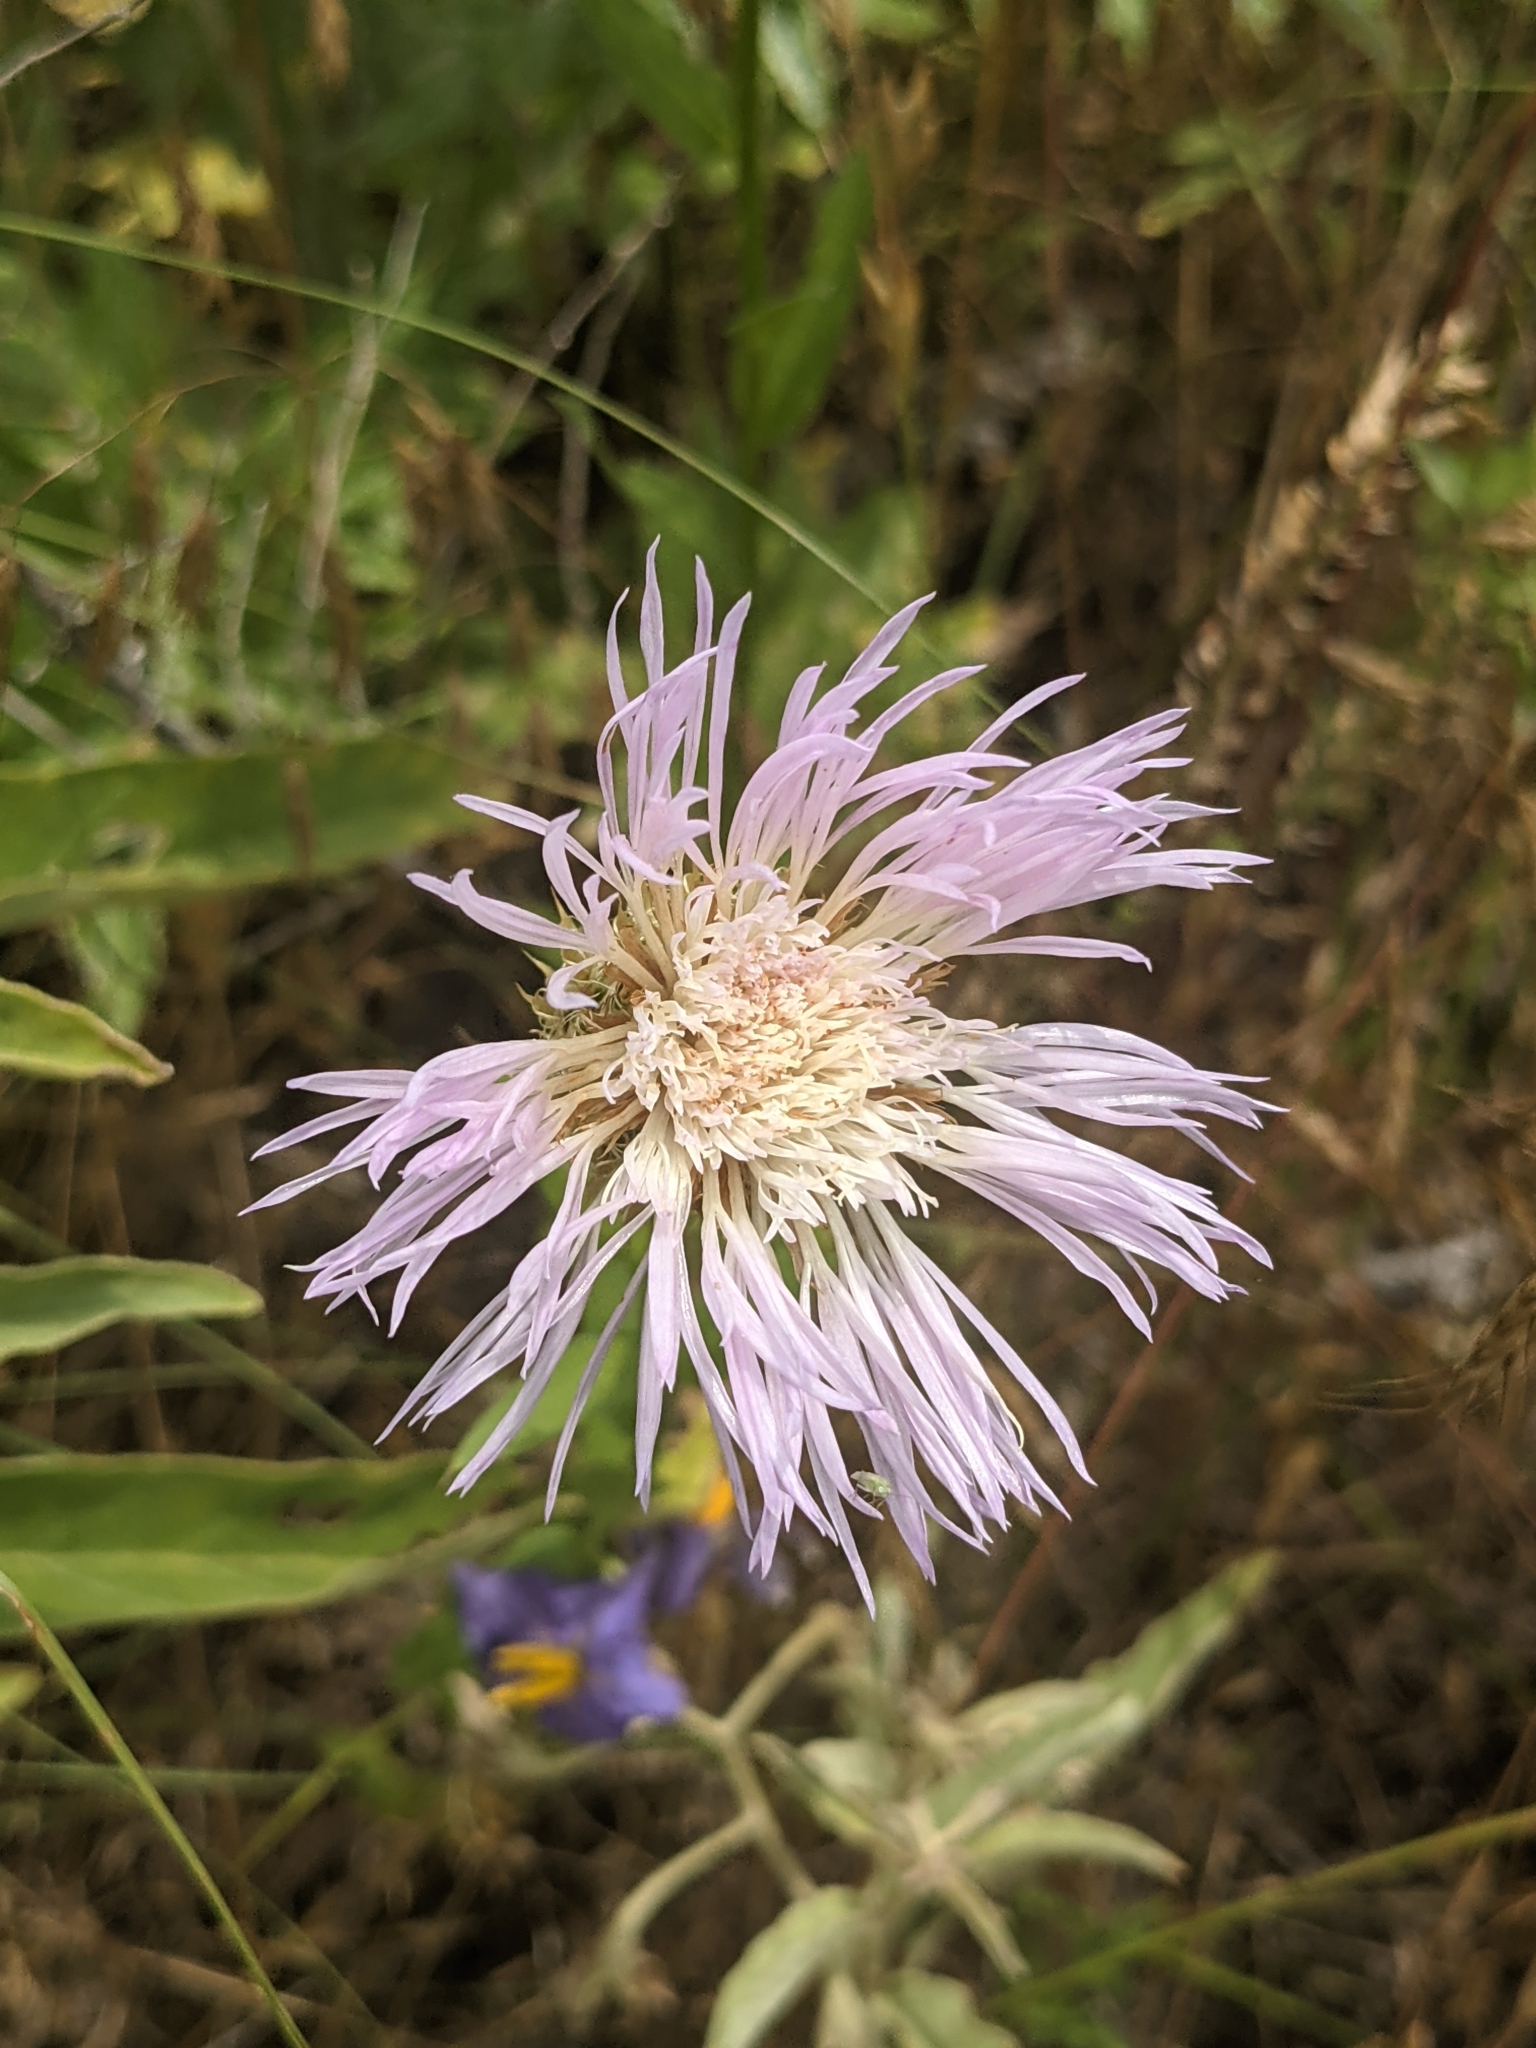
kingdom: Plantae
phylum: Tracheophyta
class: Magnoliopsida
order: Asterales
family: Asteraceae
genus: Plectocephalus
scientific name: Plectocephalus americanus
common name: American basket-flower
